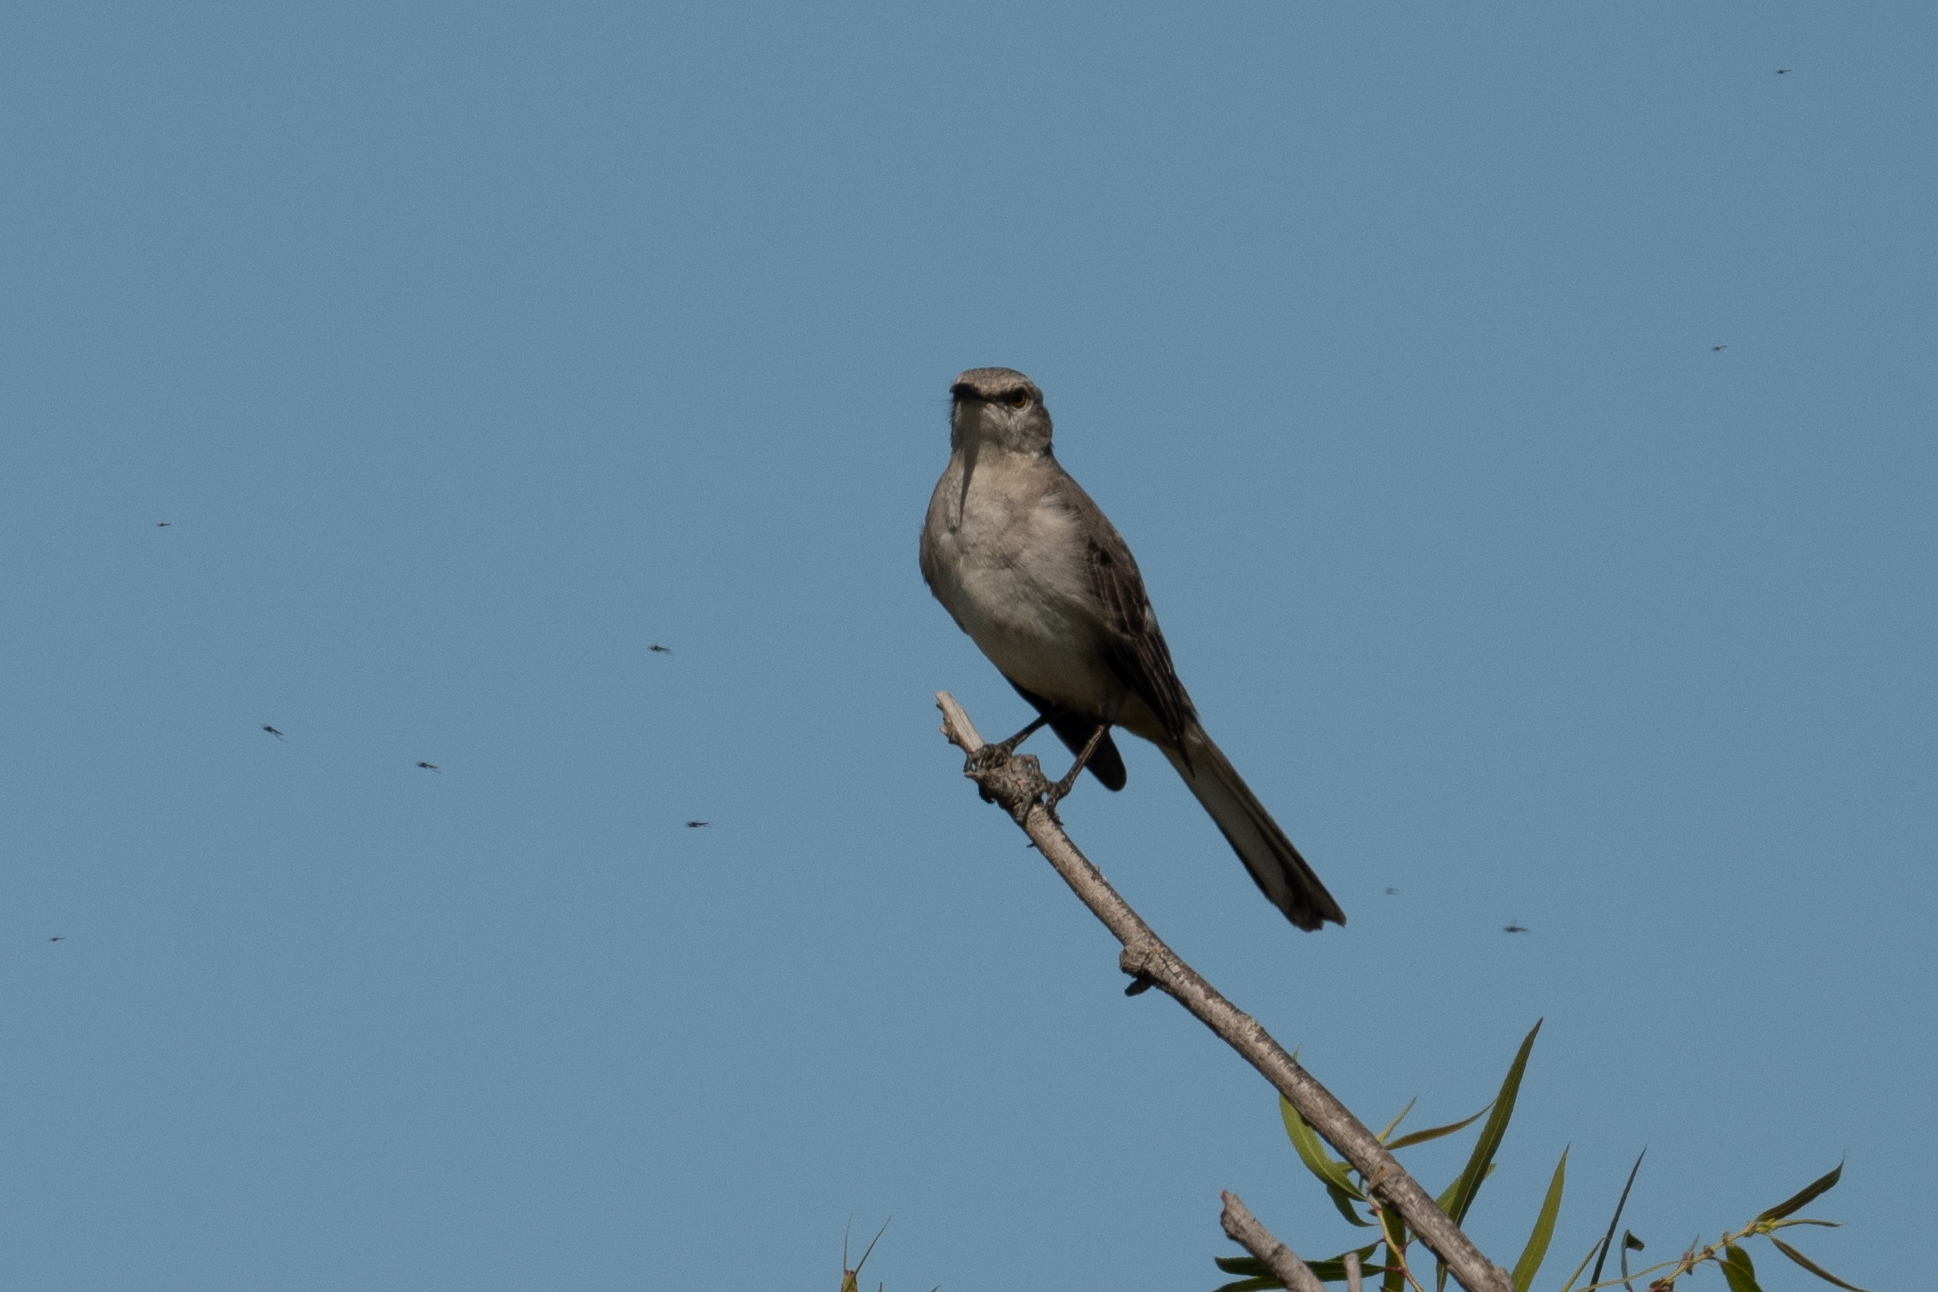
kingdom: Animalia
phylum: Chordata
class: Aves
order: Passeriformes
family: Mimidae
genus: Mimus
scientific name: Mimus polyglottos
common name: Northern mockingbird
